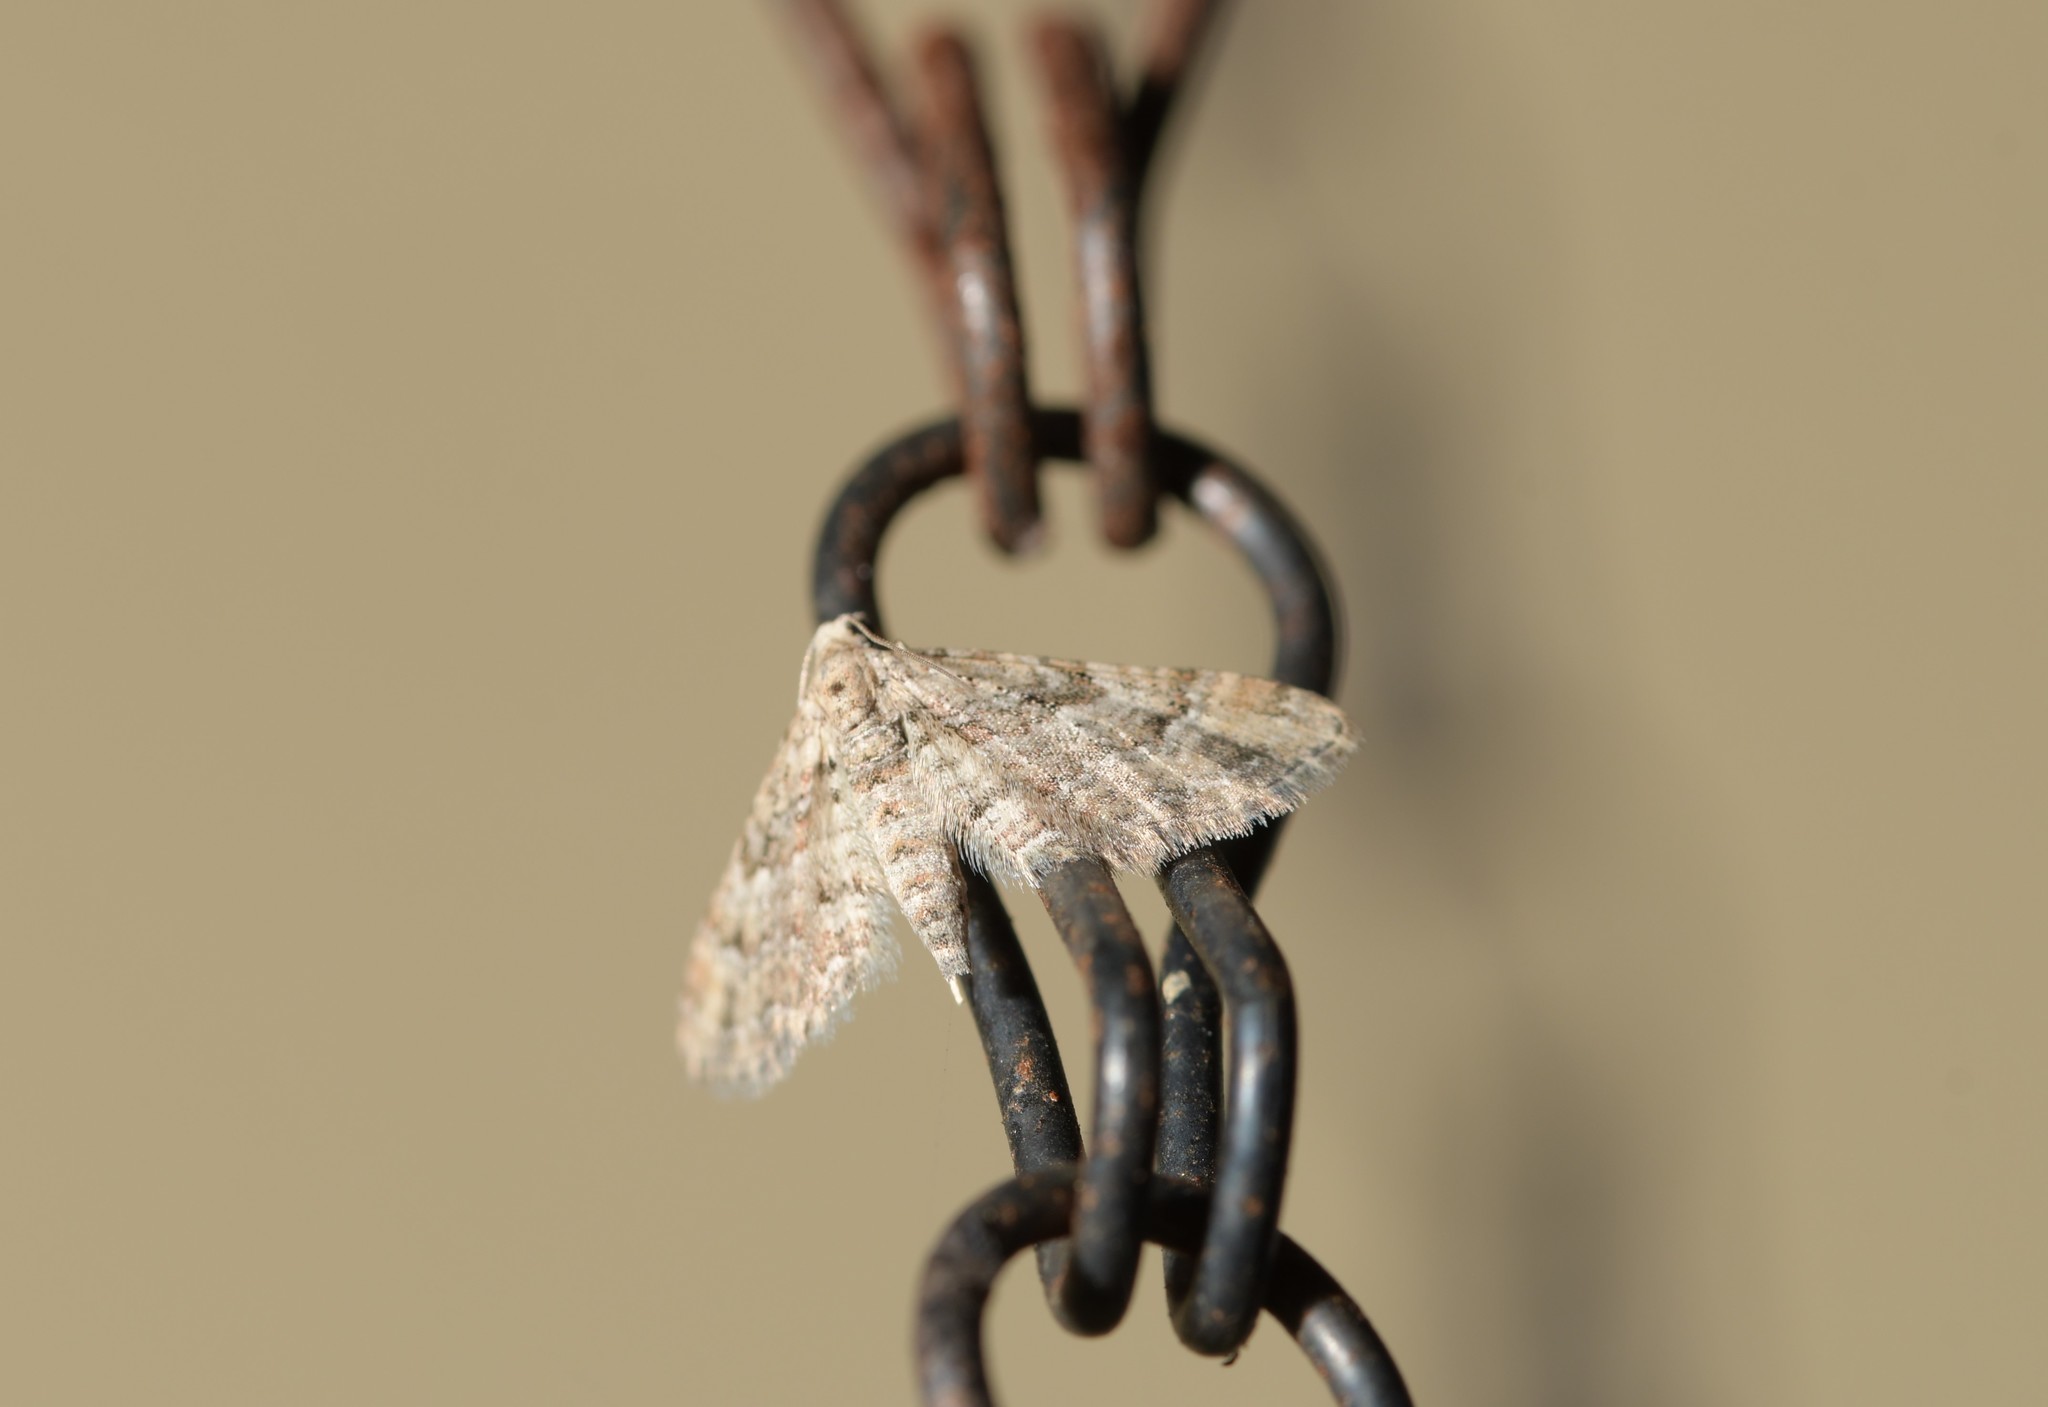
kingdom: Animalia
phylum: Arthropoda
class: Insecta
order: Lepidoptera
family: Geometridae
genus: Gymnoscelis
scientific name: Gymnoscelis rufifasciata
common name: Double-striped pug
